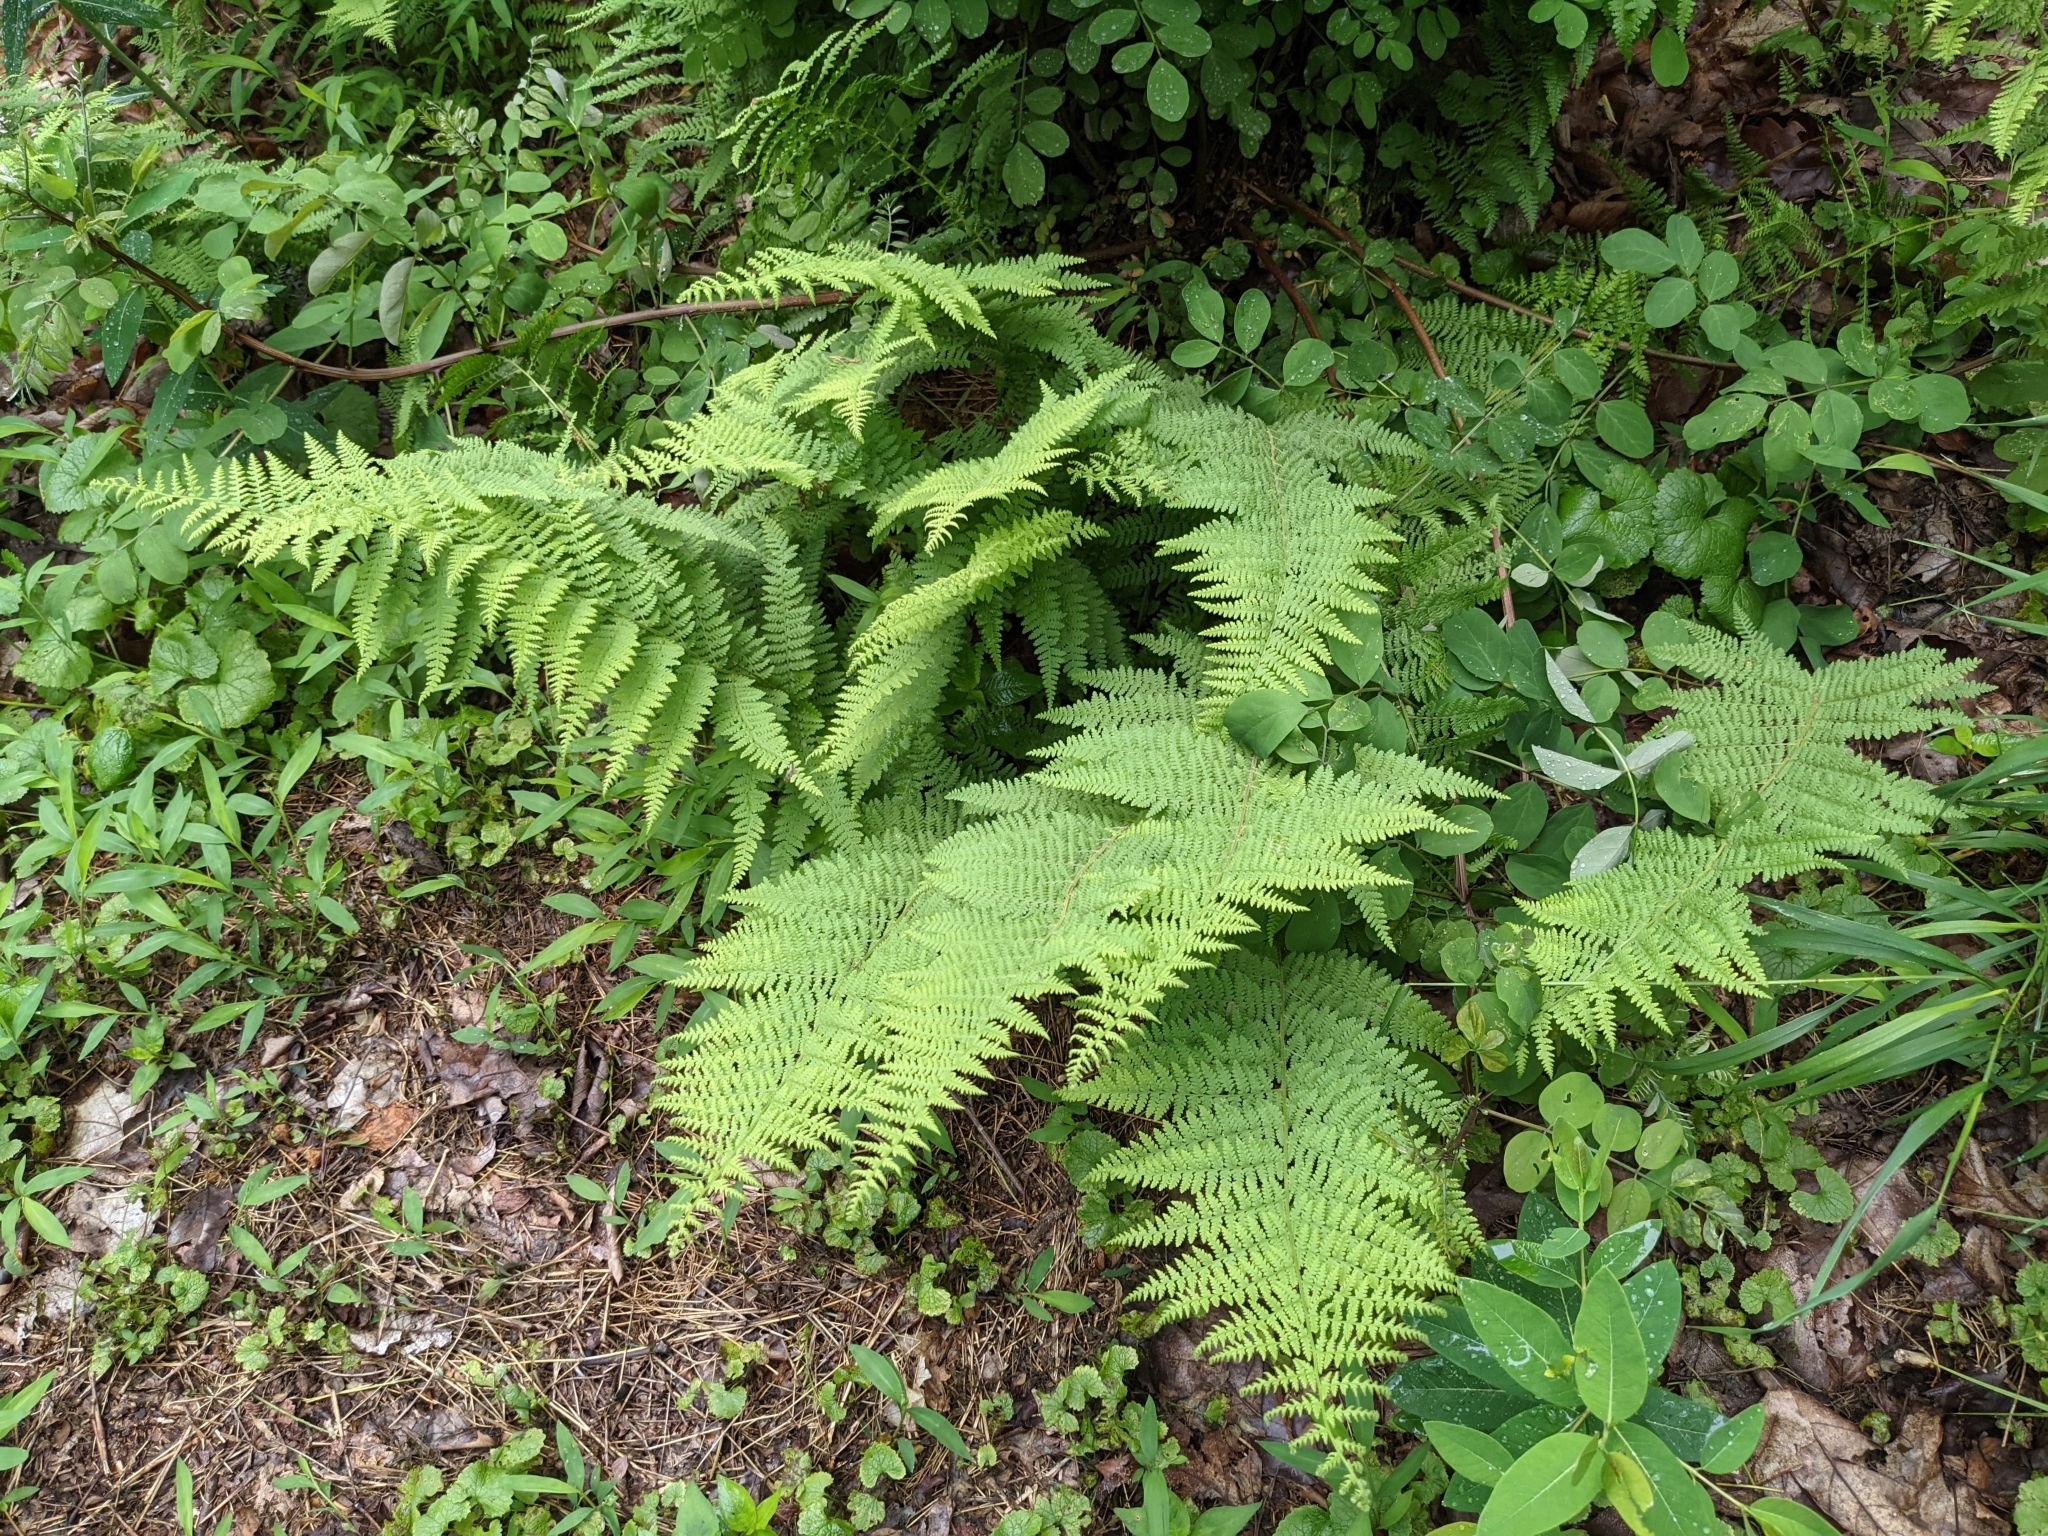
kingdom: Plantae
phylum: Tracheophyta
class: Polypodiopsida
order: Polypodiales
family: Dennstaedtiaceae
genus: Sitobolium
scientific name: Sitobolium punctilobum
